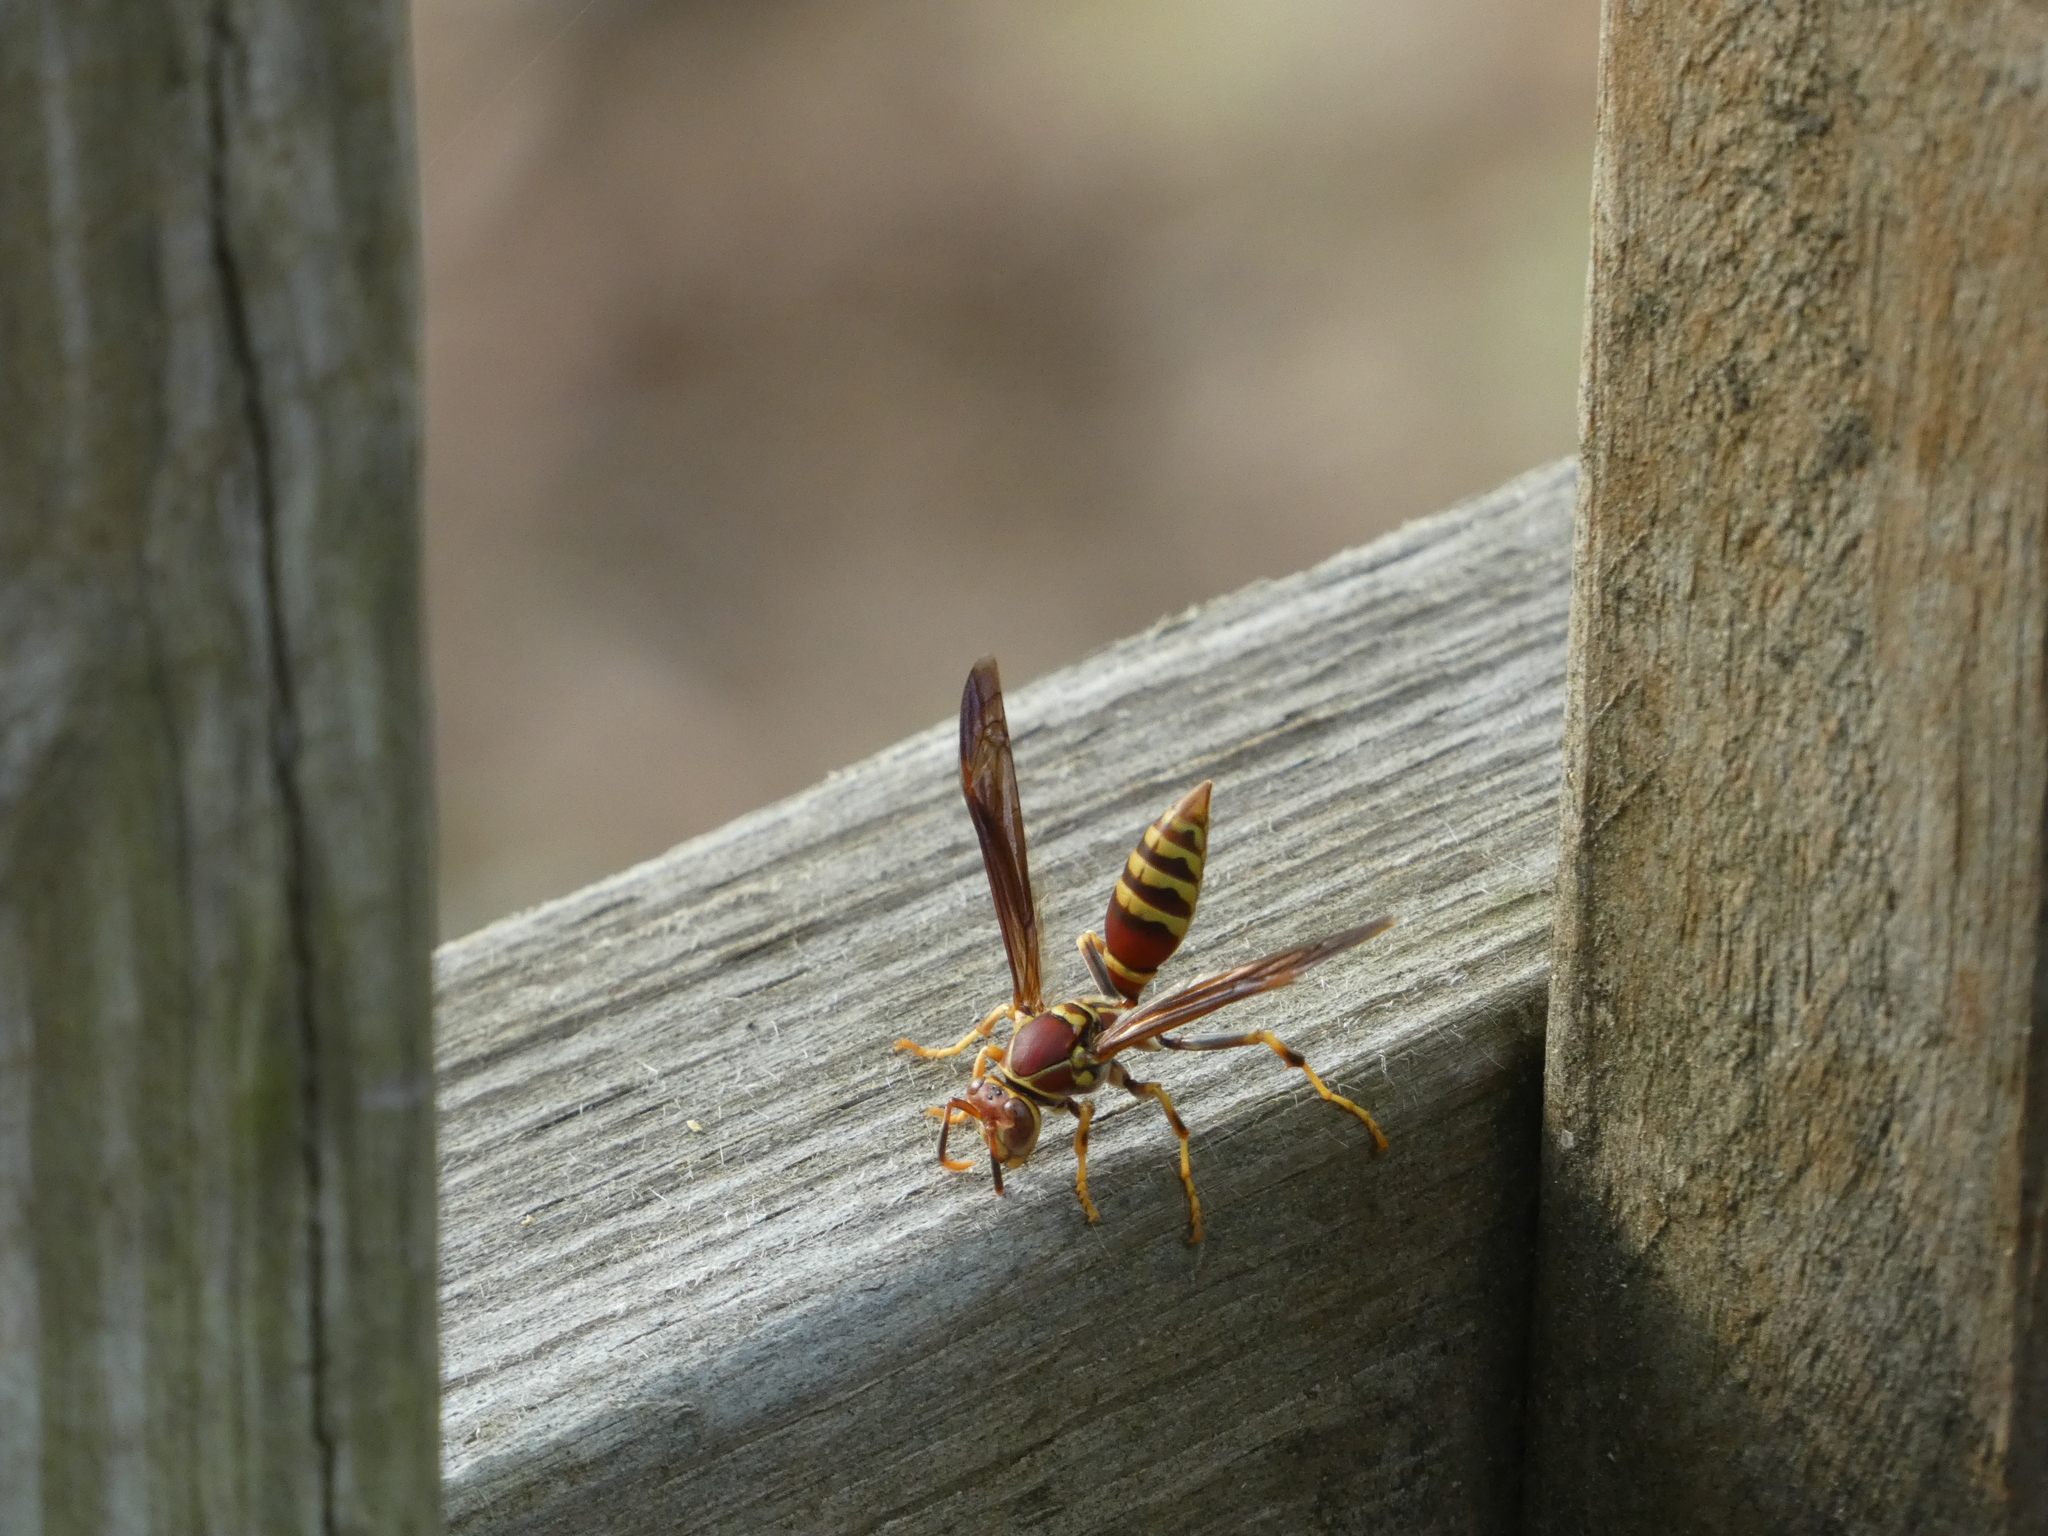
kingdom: Animalia
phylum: Arthropoda
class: Insecta
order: Hymenoptera
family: Eumenidae
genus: Polistes
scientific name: Polistes exclamans
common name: Paper wasp
